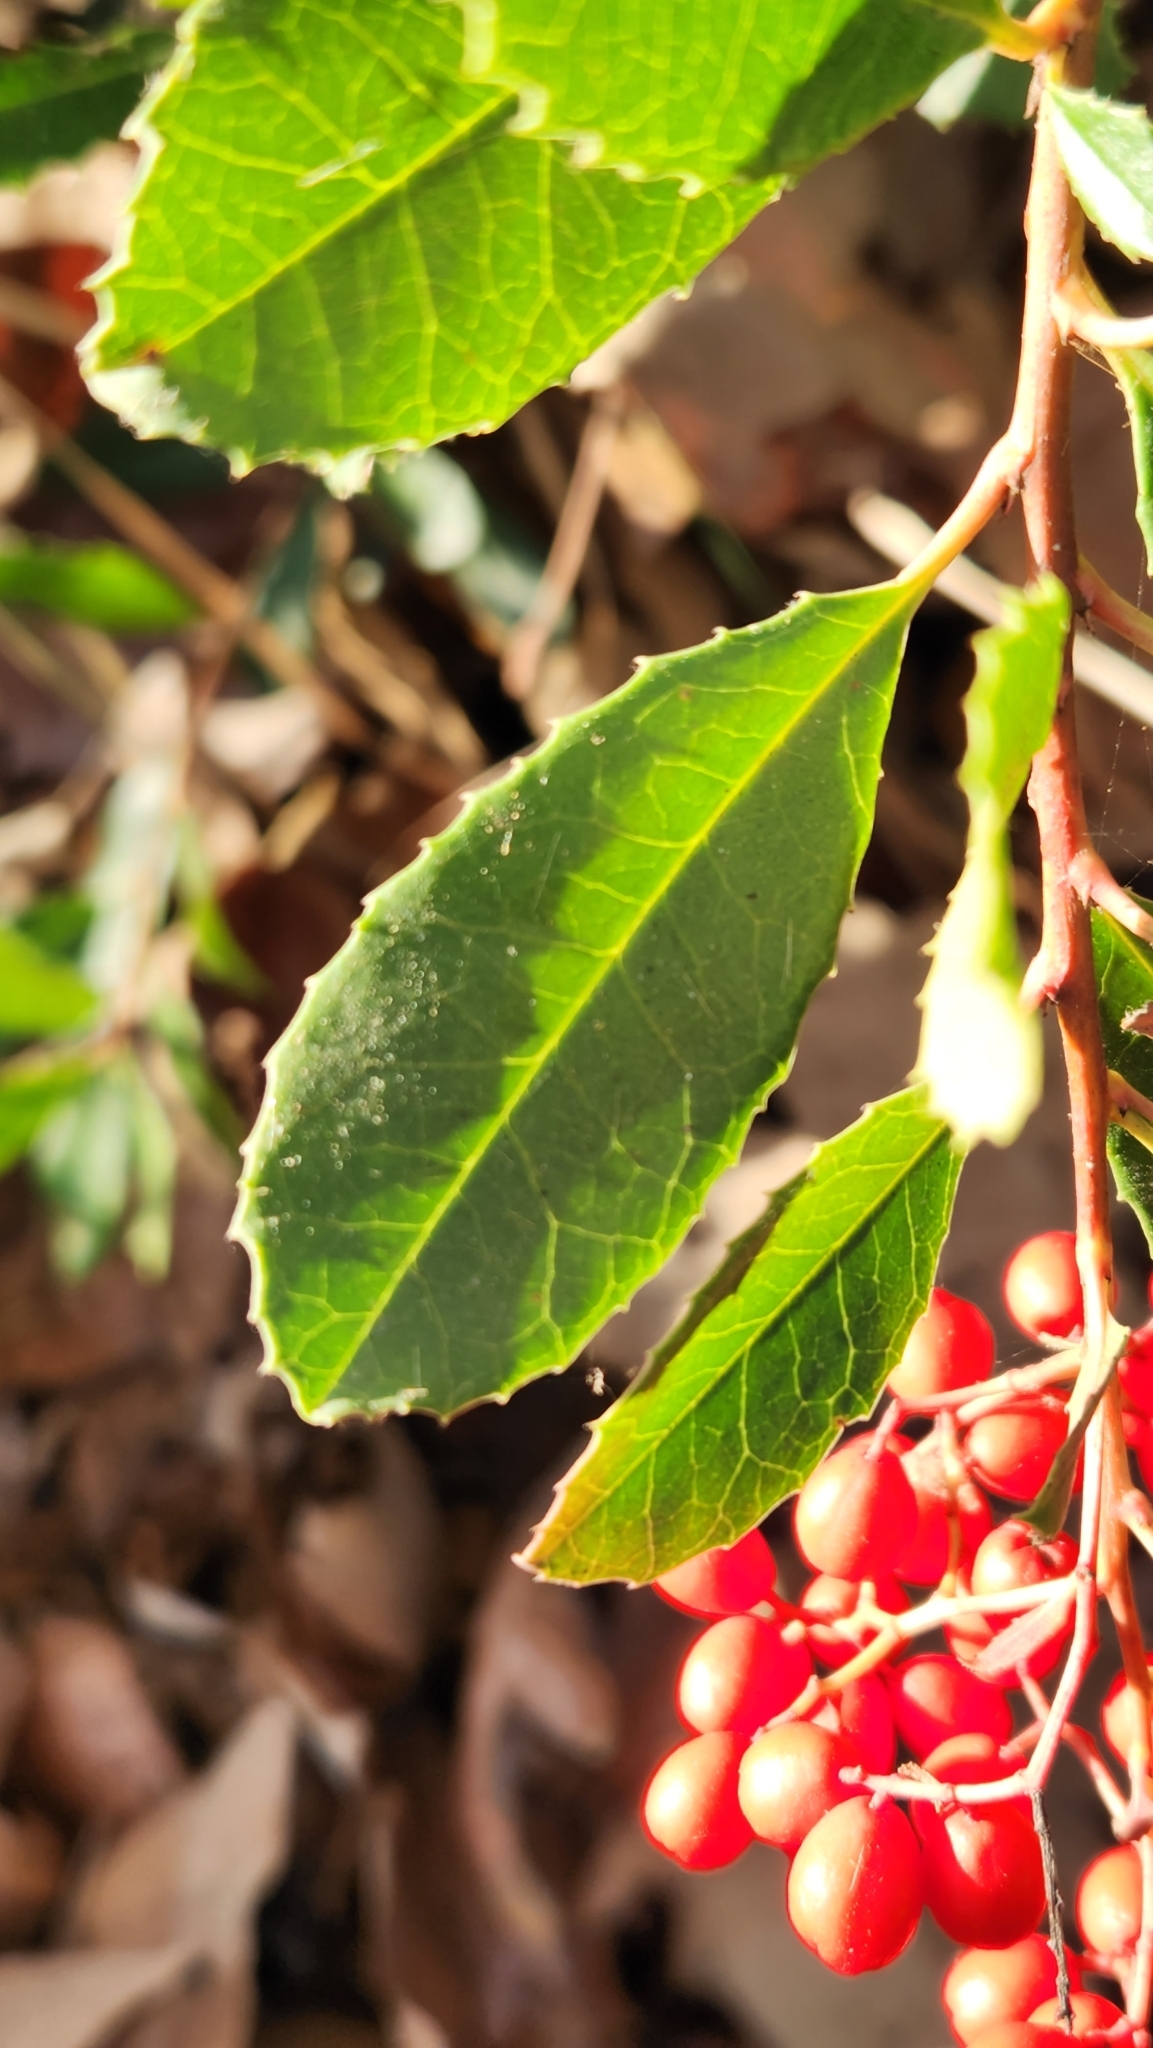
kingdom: Plantae
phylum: Tracheophyta
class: Magnoliopsida
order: Rosales
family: Rosaceae
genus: Heteromeles
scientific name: Heteromeles arbutifolia
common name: California-holly
